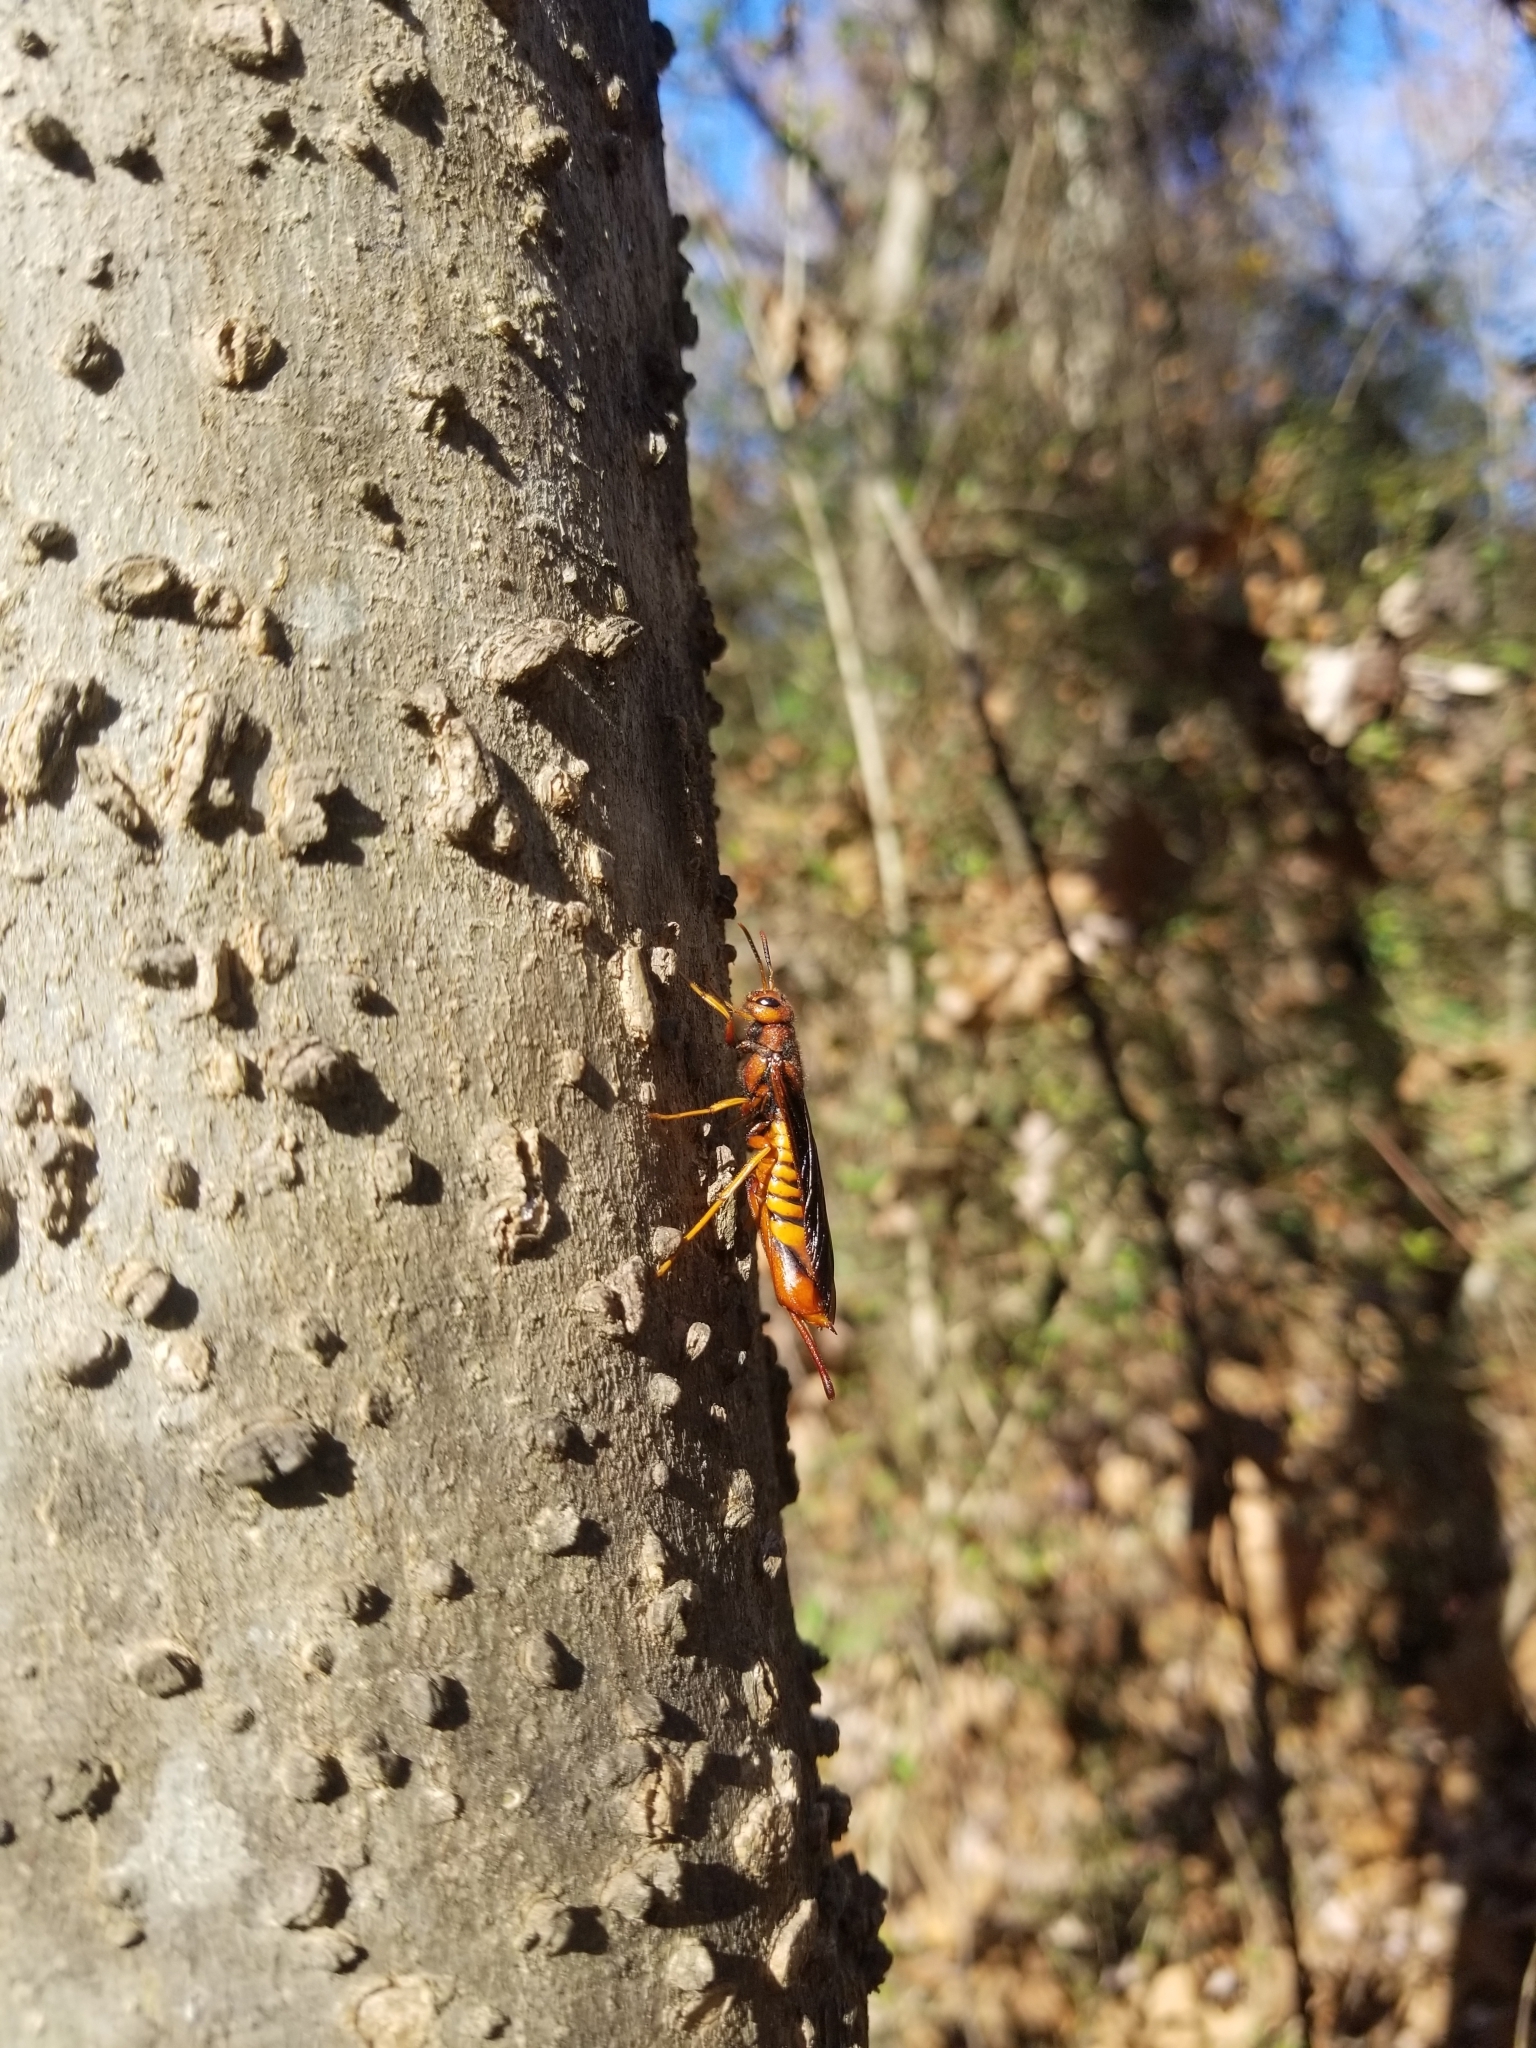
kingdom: Animalia
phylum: Arthropoda
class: Insecta
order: Hymenoptera
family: Siricidae
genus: Tremex
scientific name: Tremex columba
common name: Wasp
